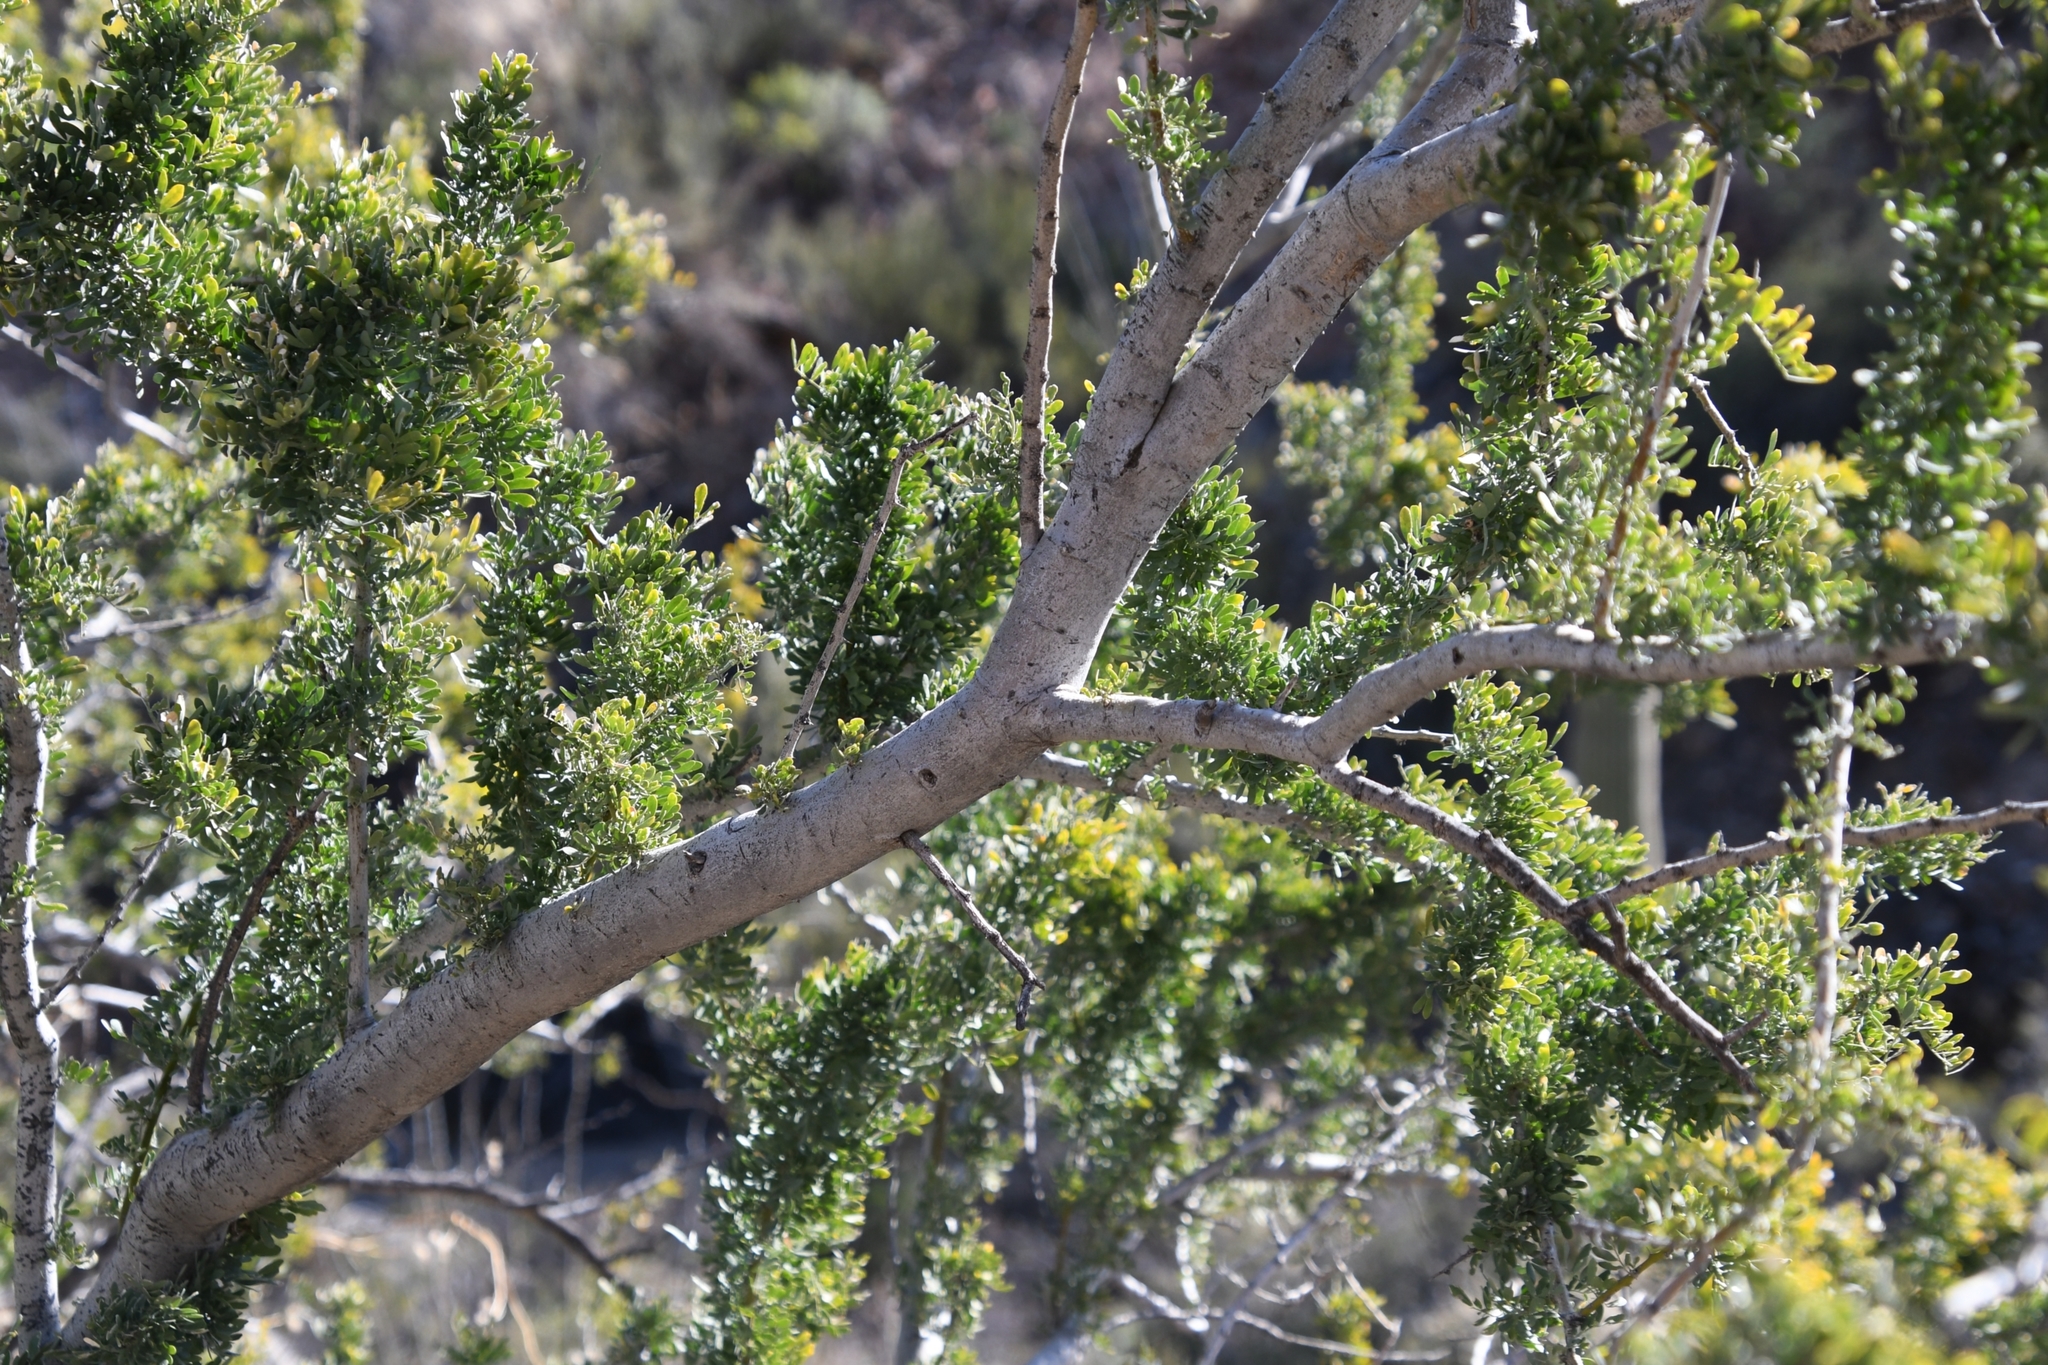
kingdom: Plantae
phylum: Tracheophyta
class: Magnoliopsida
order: Fabales
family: Fabaceae
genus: Olneya
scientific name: Olneya tesota
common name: Desert ironwood
